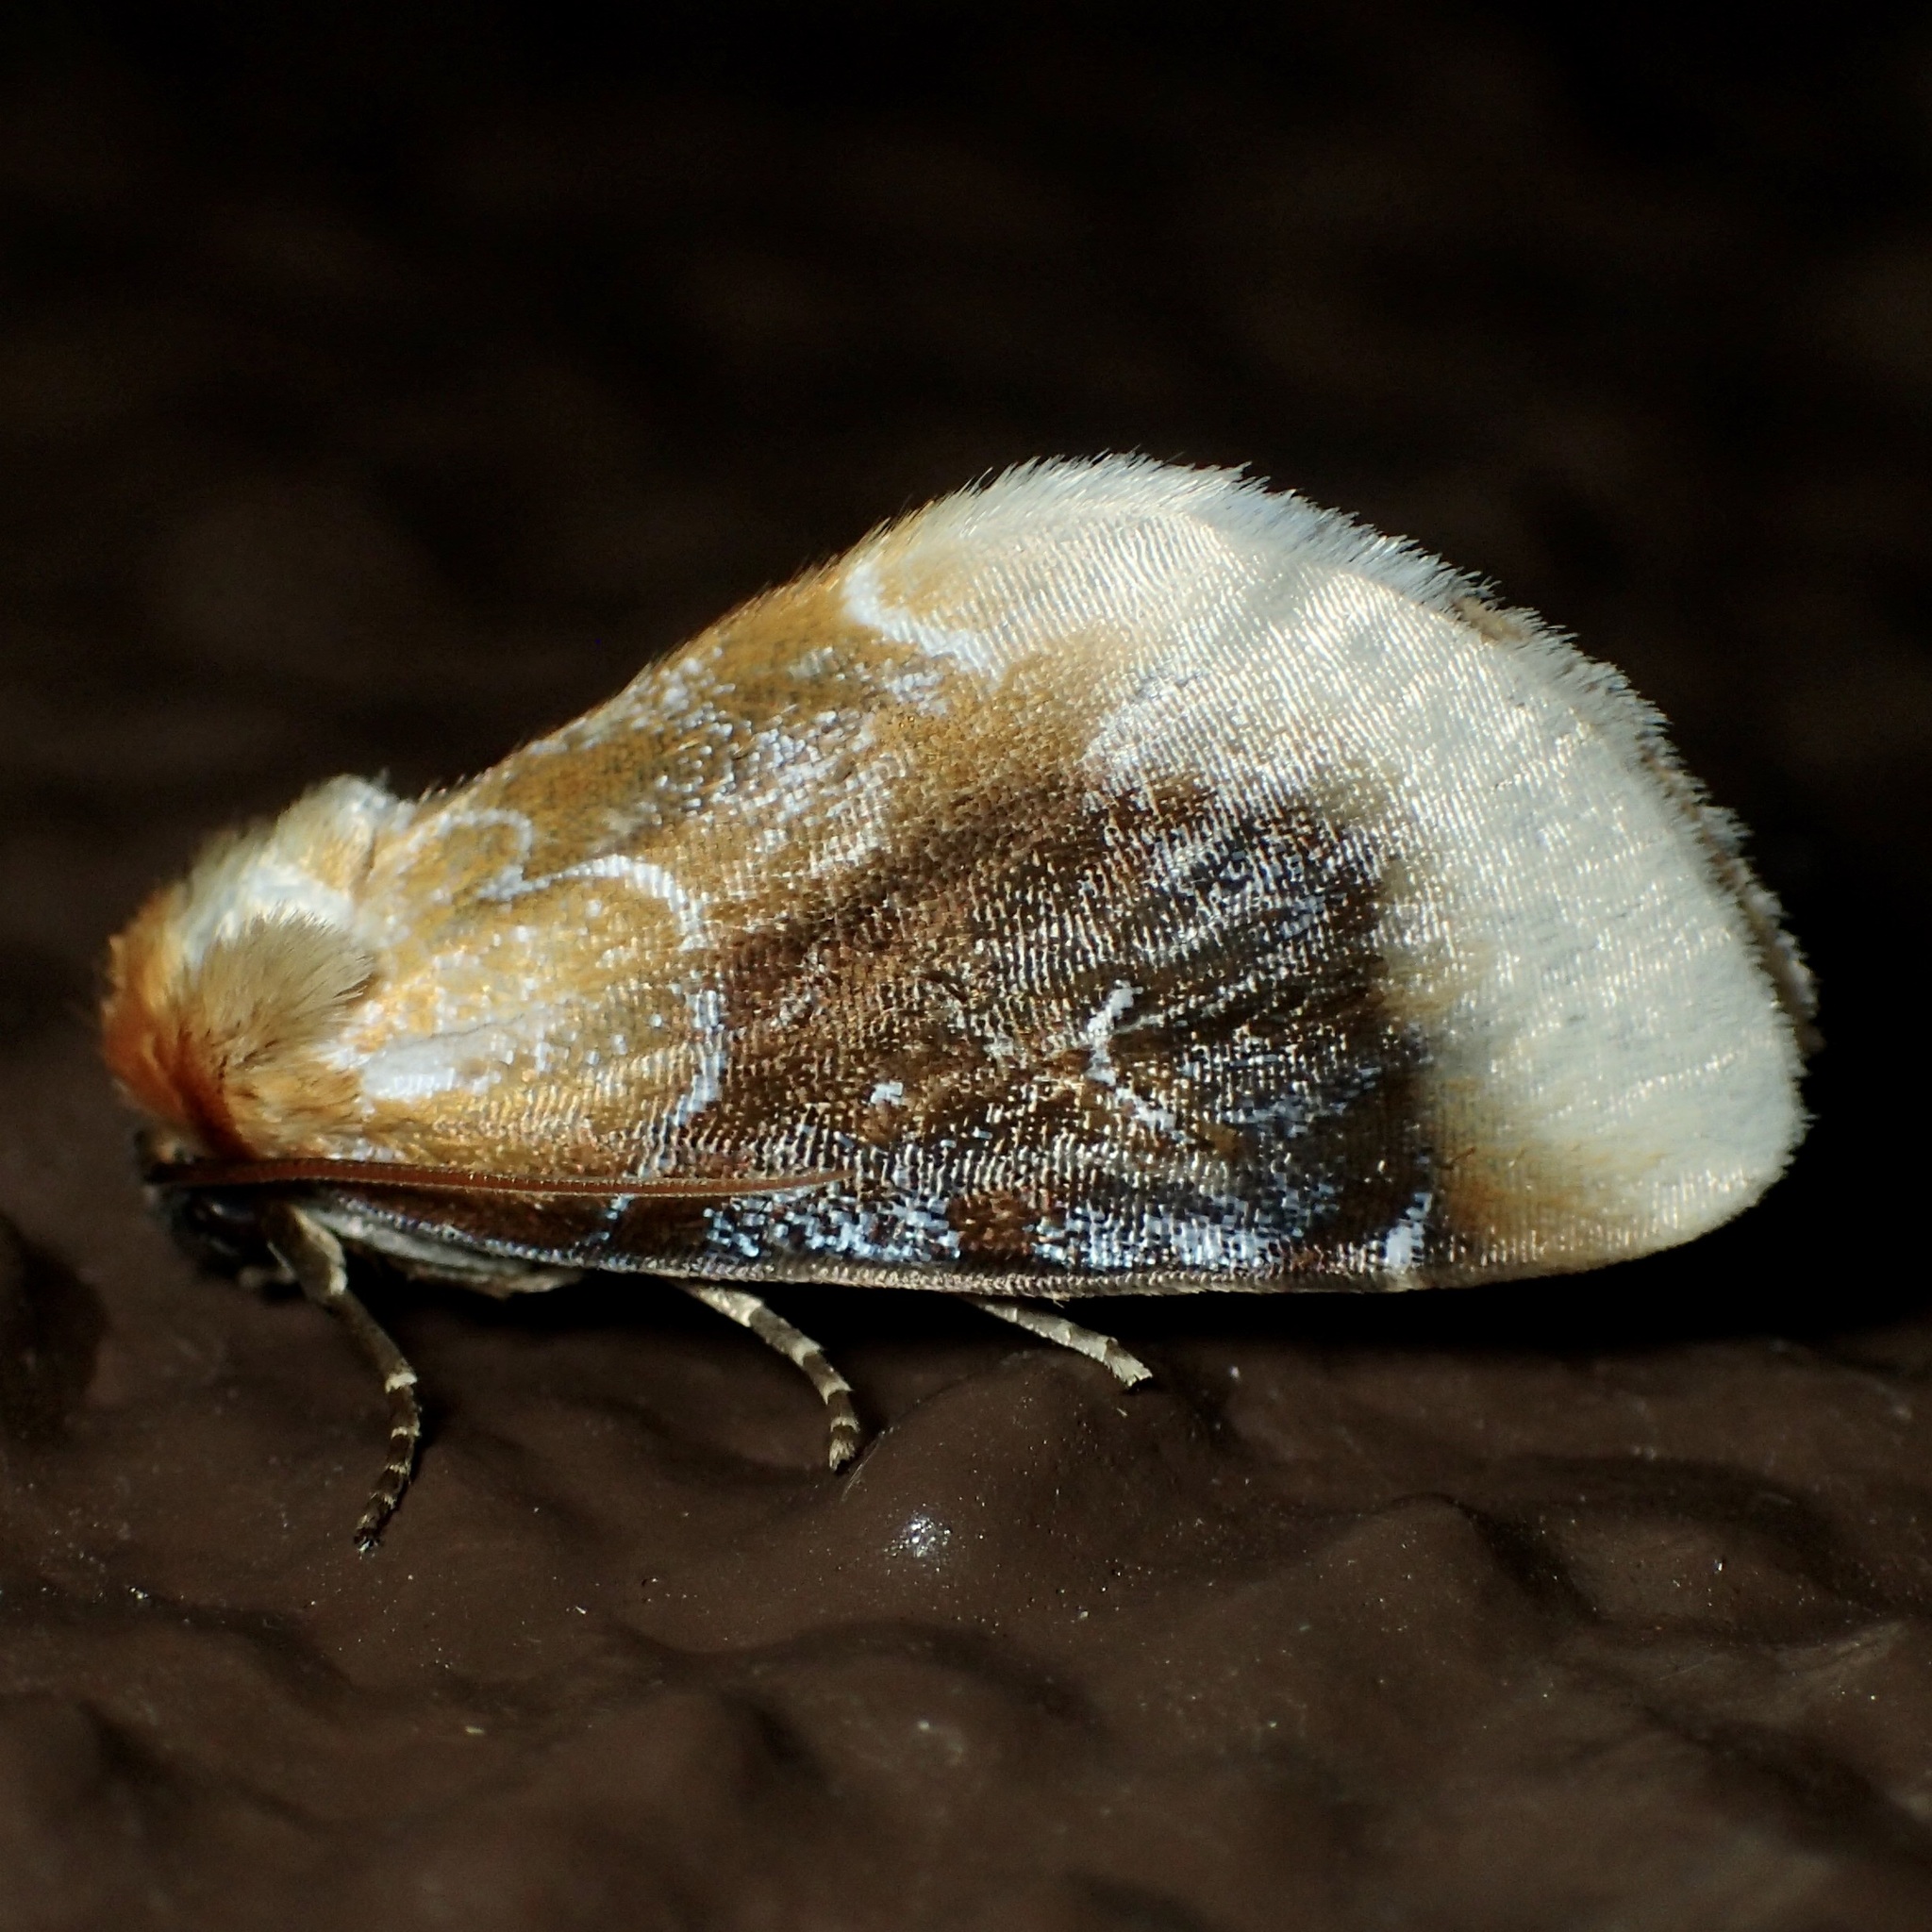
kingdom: Animalia
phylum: Arthropoda
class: Insecta
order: Lepidoptera
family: Noctuidae
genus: Chrysoecia
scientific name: Chrysoecia scira
